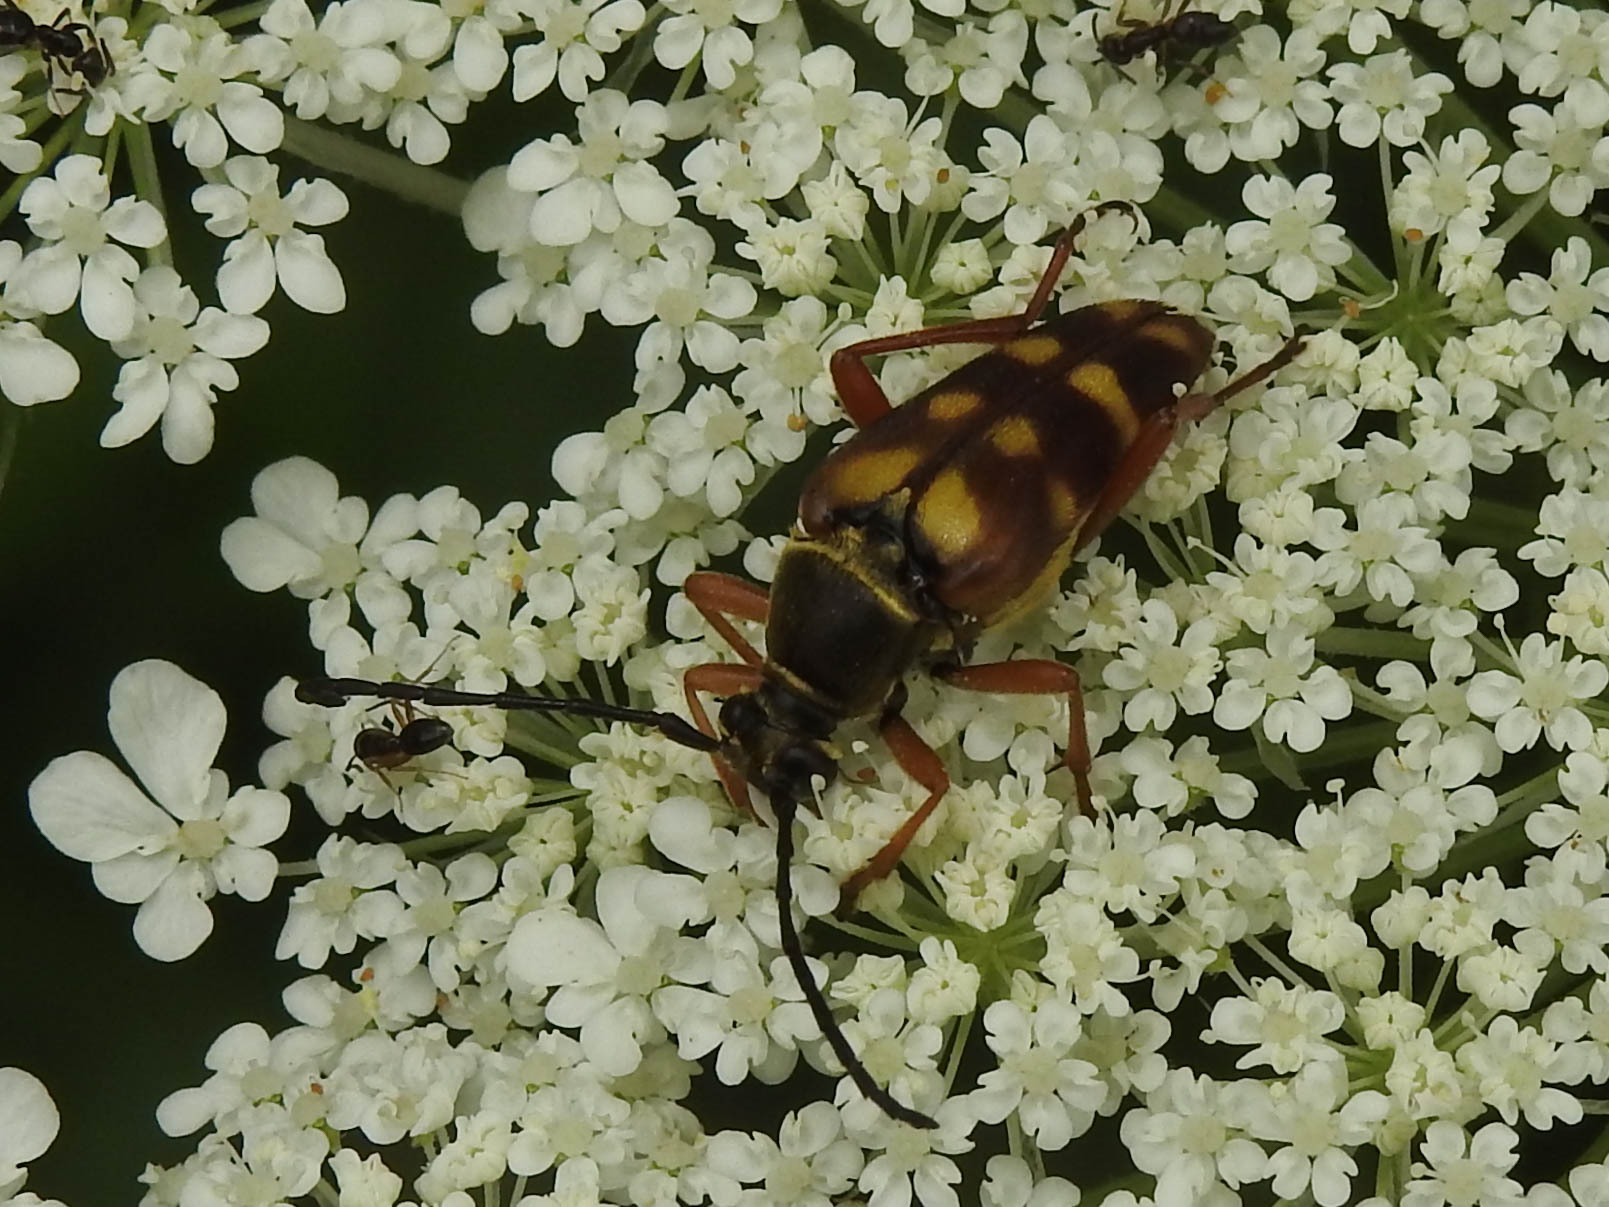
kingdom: Animalia
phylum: Arthropoda
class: Insecta
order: Coleoptera
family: Cerambycidae
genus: Typocerus
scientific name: Typocerus velutinus
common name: Banded longhorn beetle
